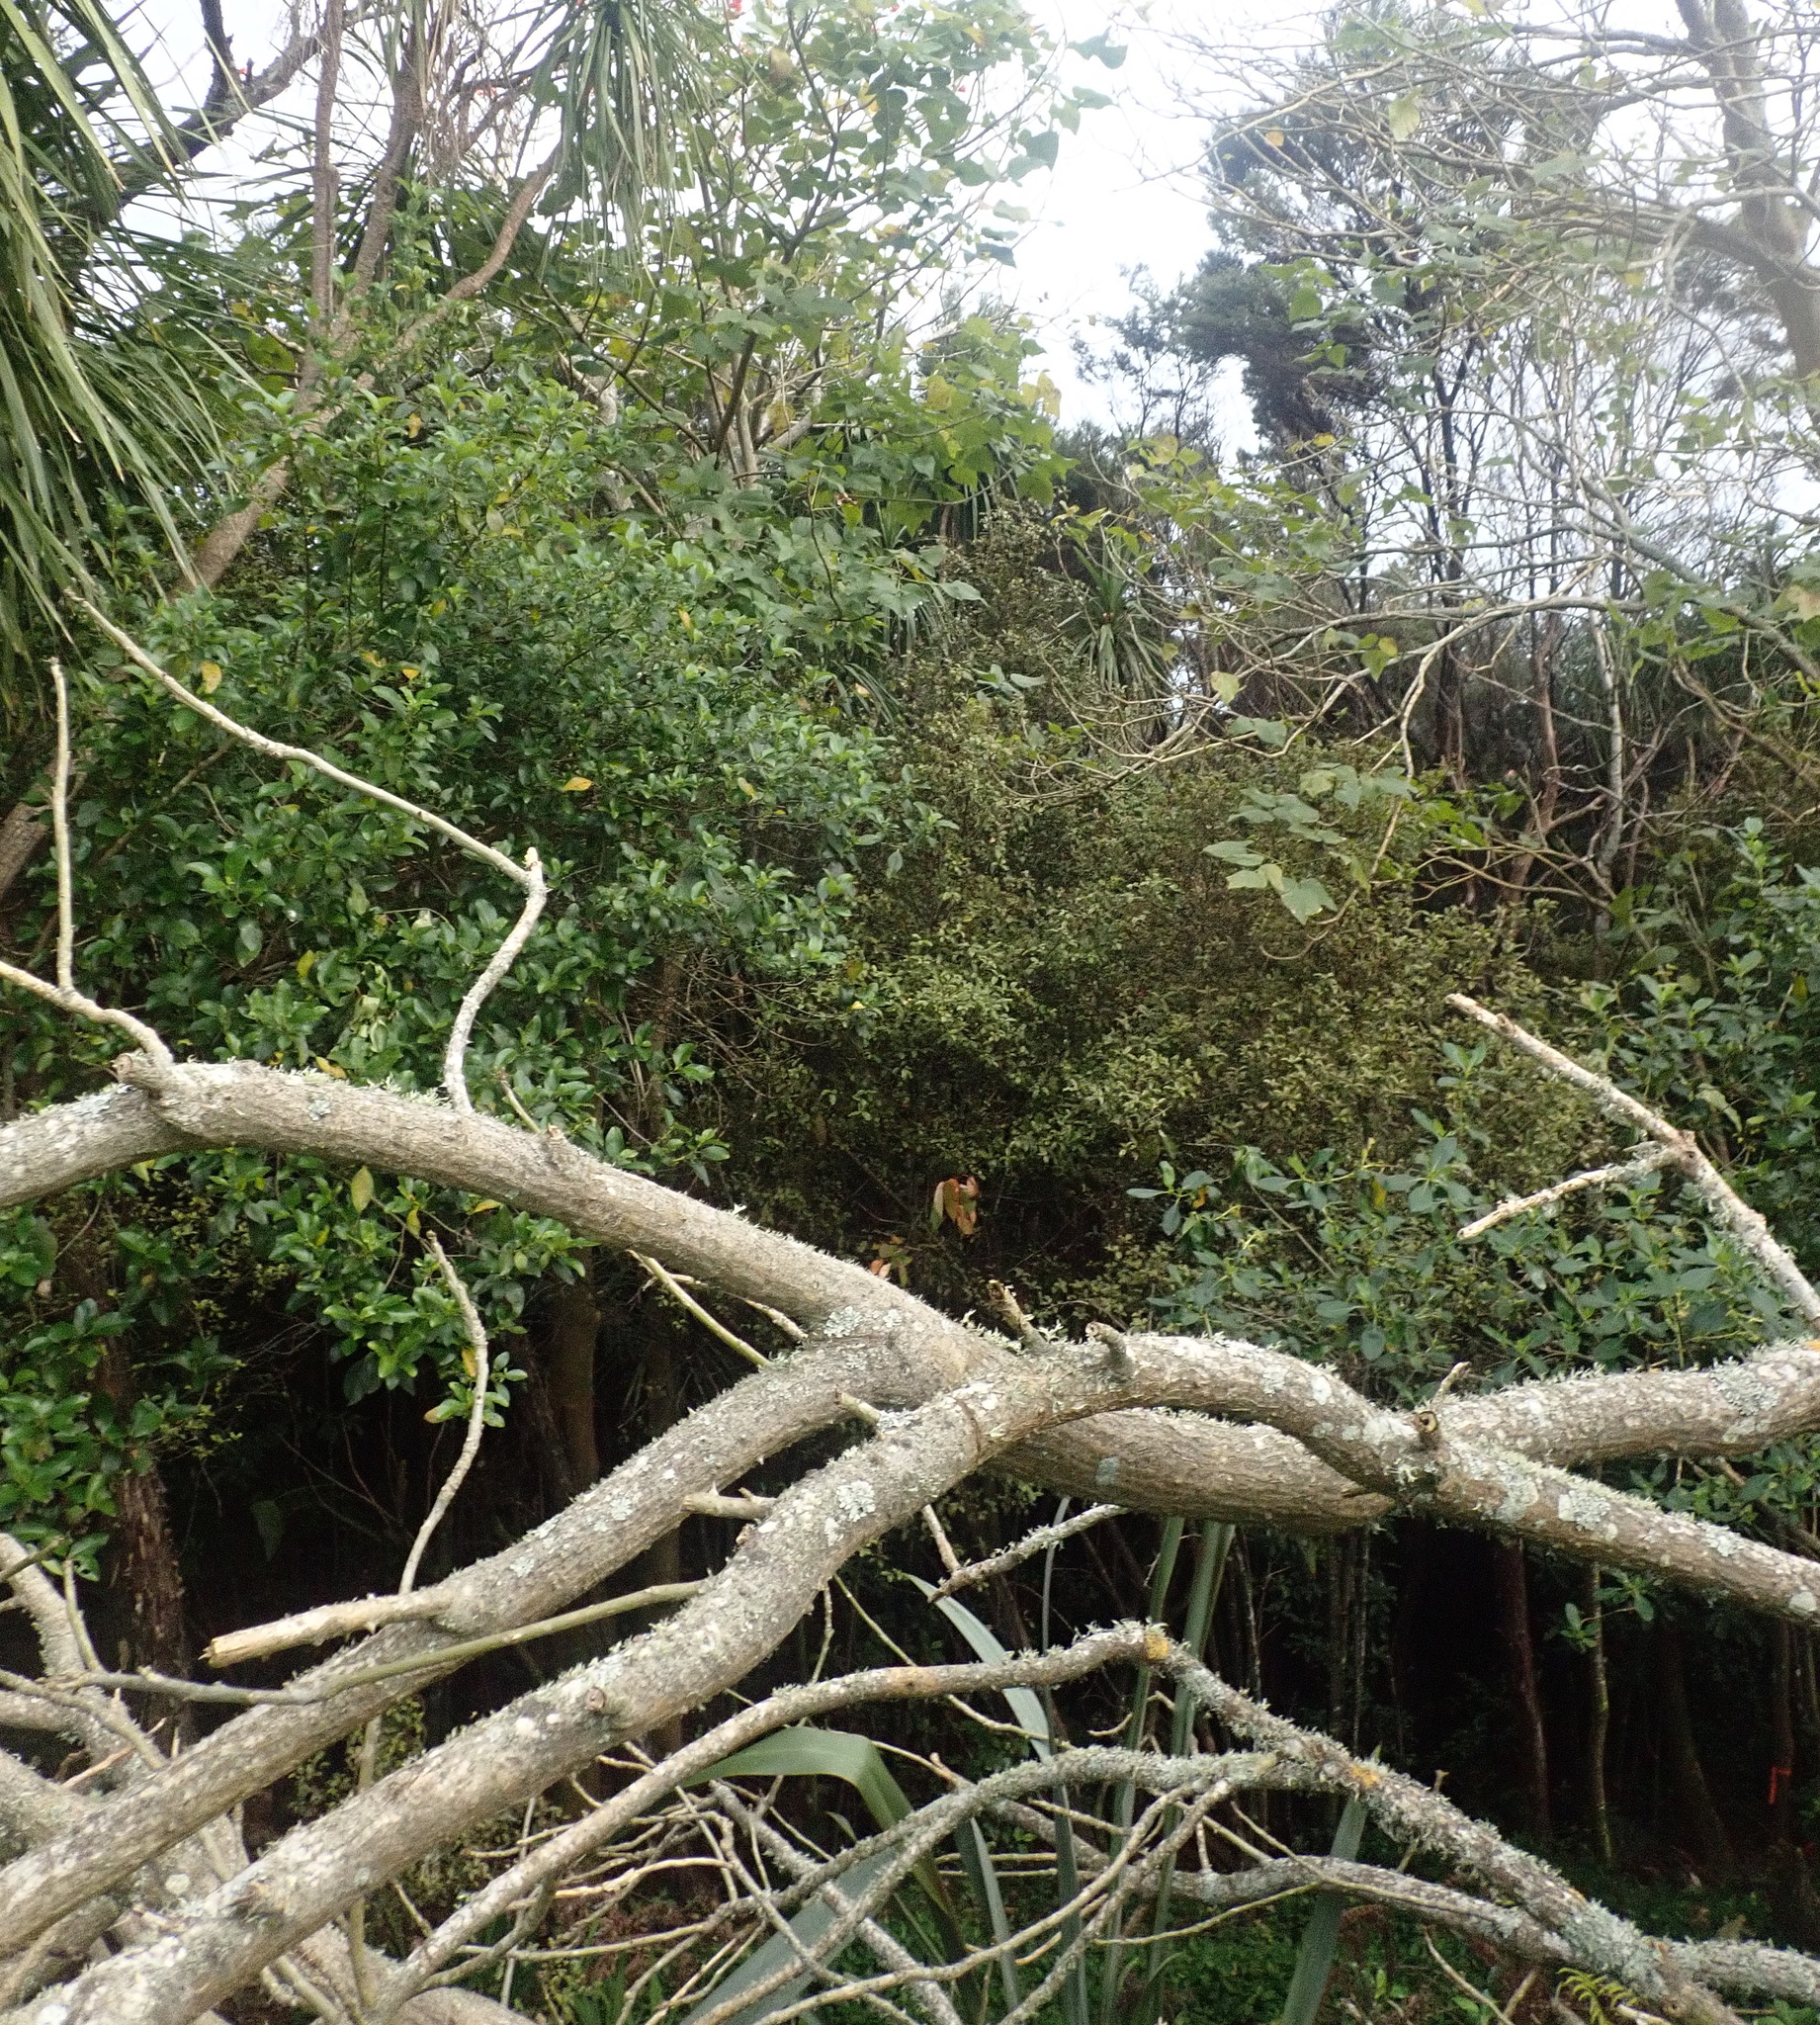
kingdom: Plantae
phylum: Tracheophyta
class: Magnoliopsida
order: Ericales
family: Primulaceae
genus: Myrsine
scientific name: Myrsine australis
